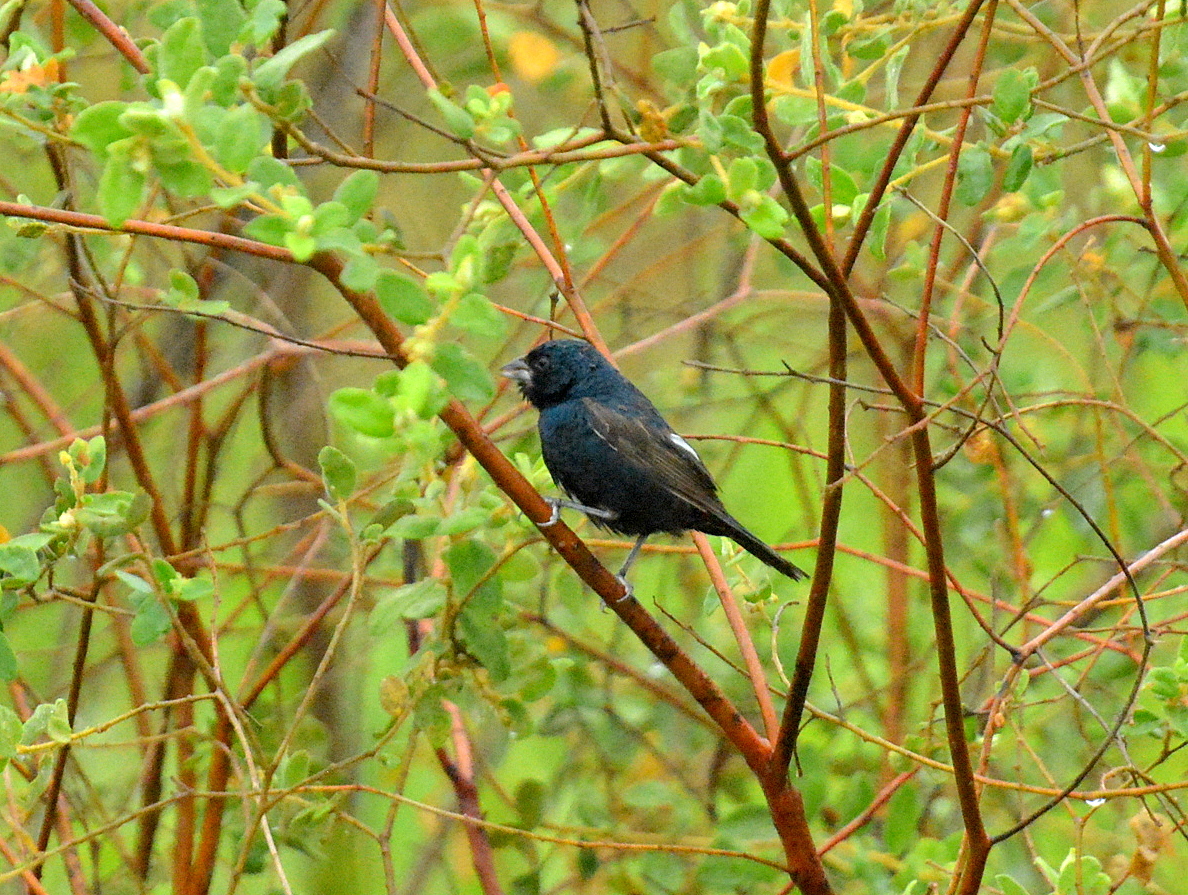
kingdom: Animalia
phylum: Chordata
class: Aves
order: Passeriformes
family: Thraupidae
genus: Volatinia
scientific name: Volatinia jacarina
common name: Blue-black grassquit
